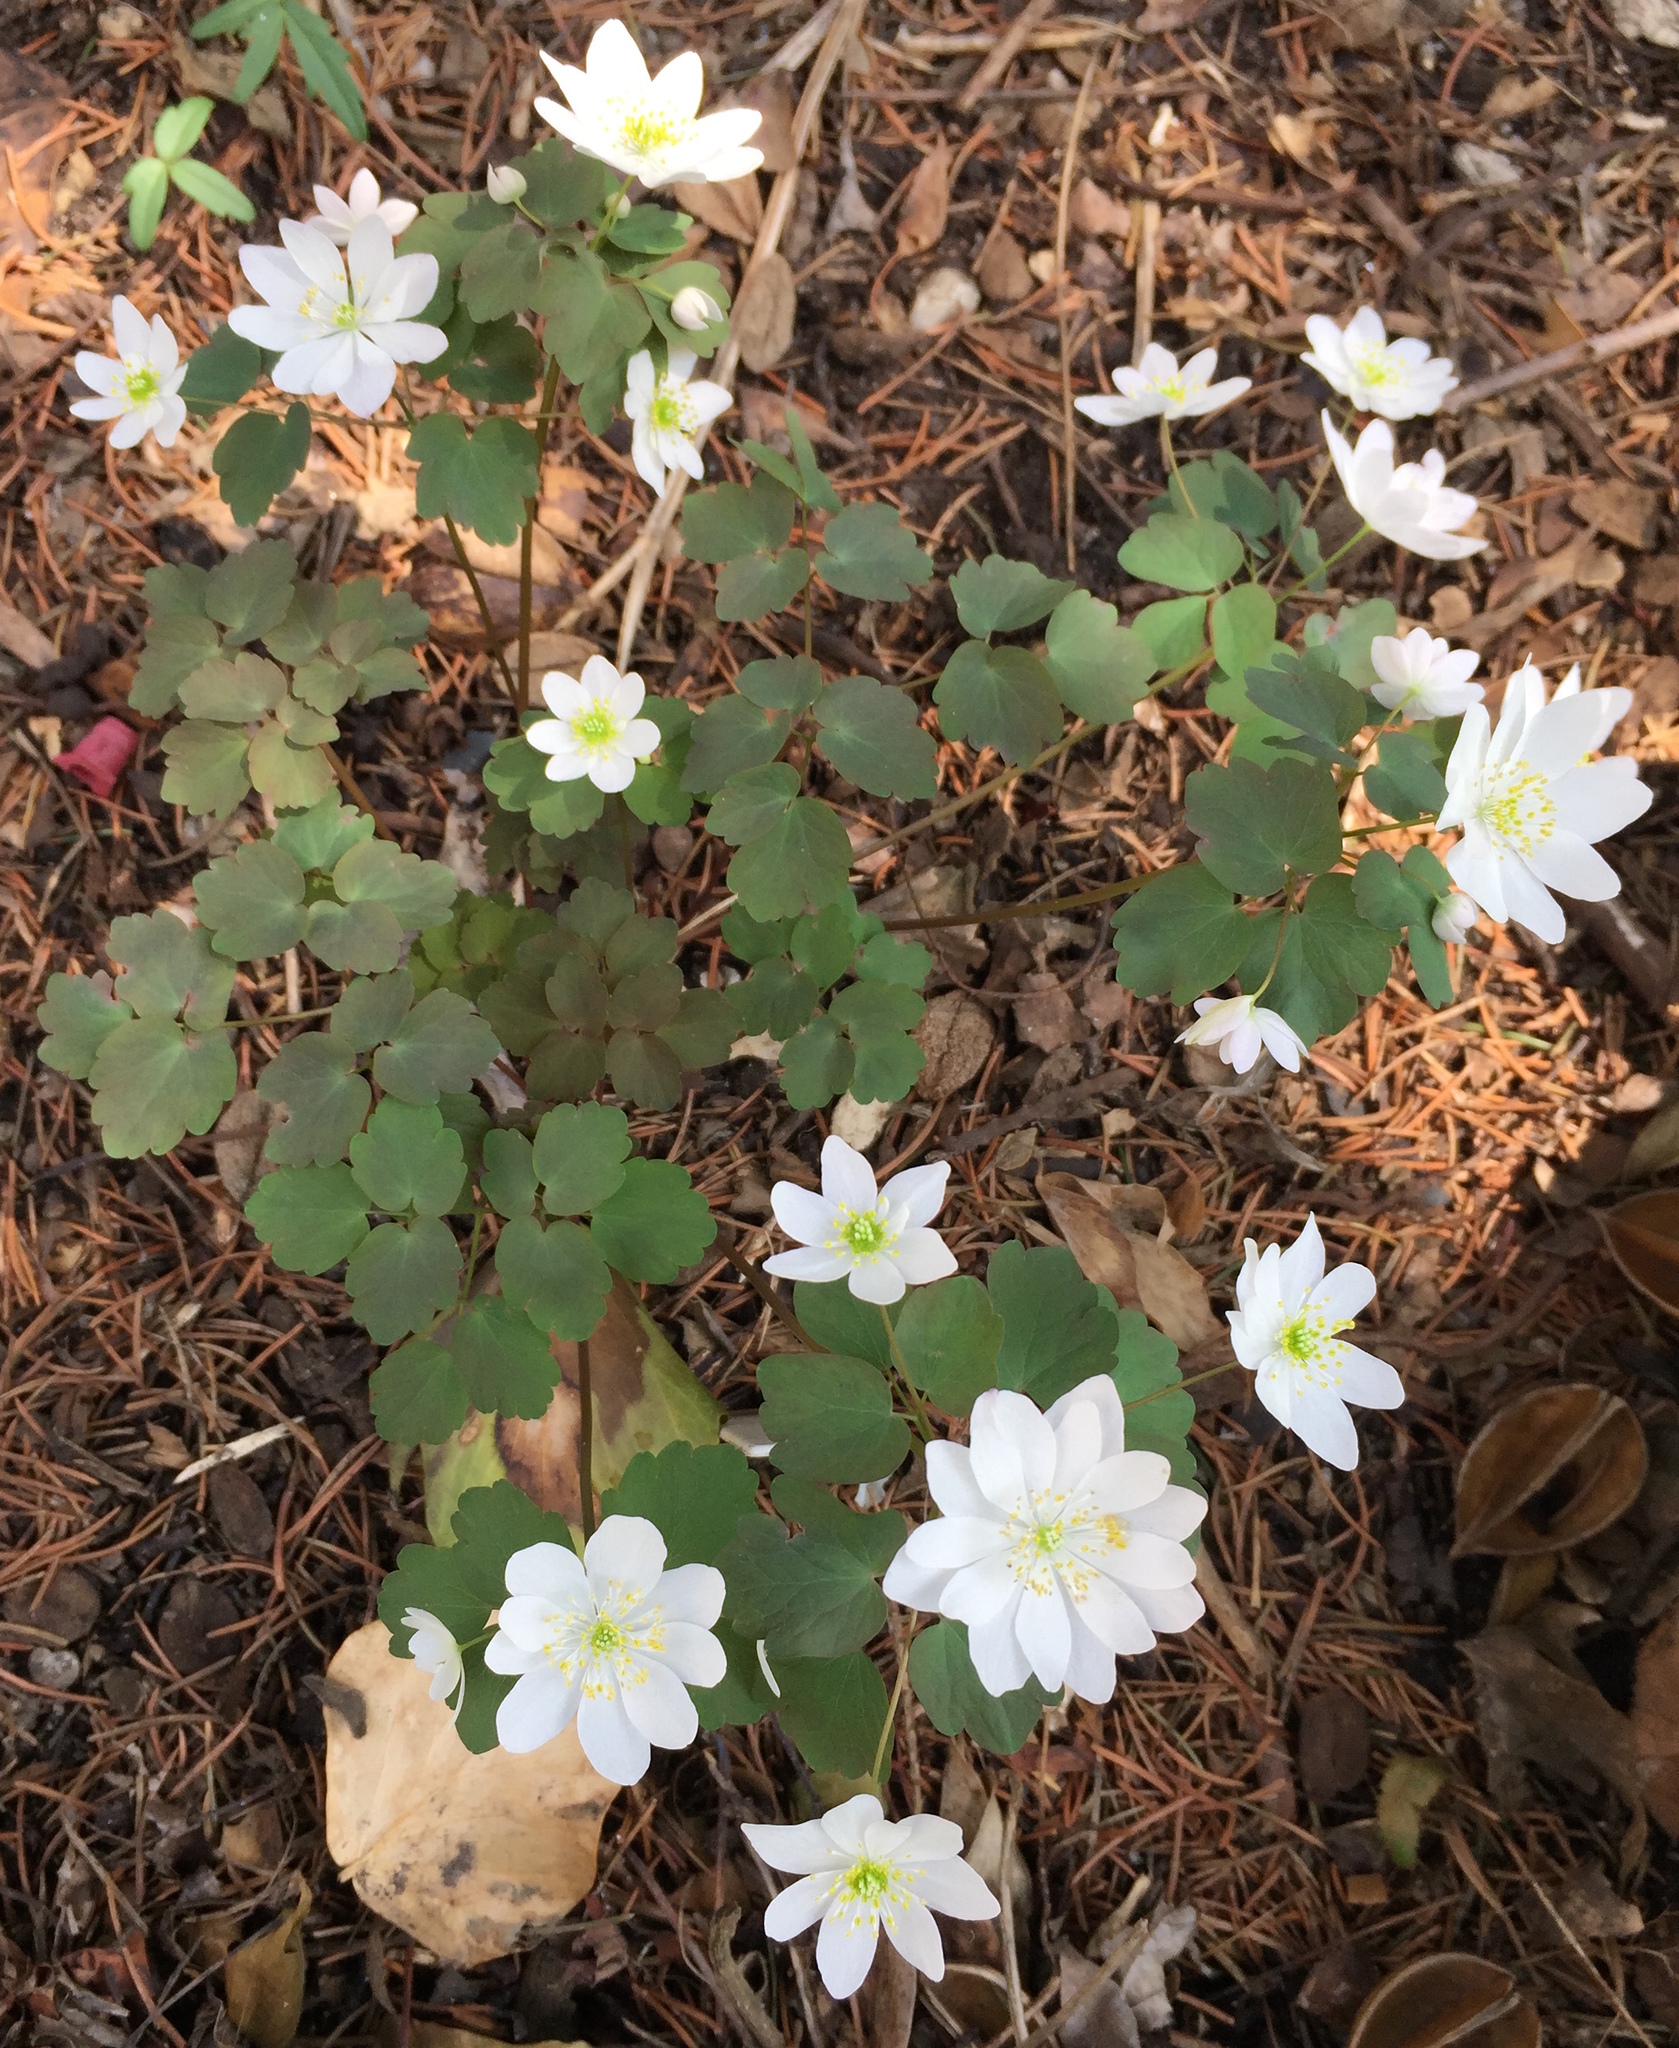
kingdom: Plantae
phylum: Tracheophyta
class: Magnoliopsida
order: Ranunculales
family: Ranunculaceae
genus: Thalictrum
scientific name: Thalictrum thalictroides
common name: Rue-anemone
